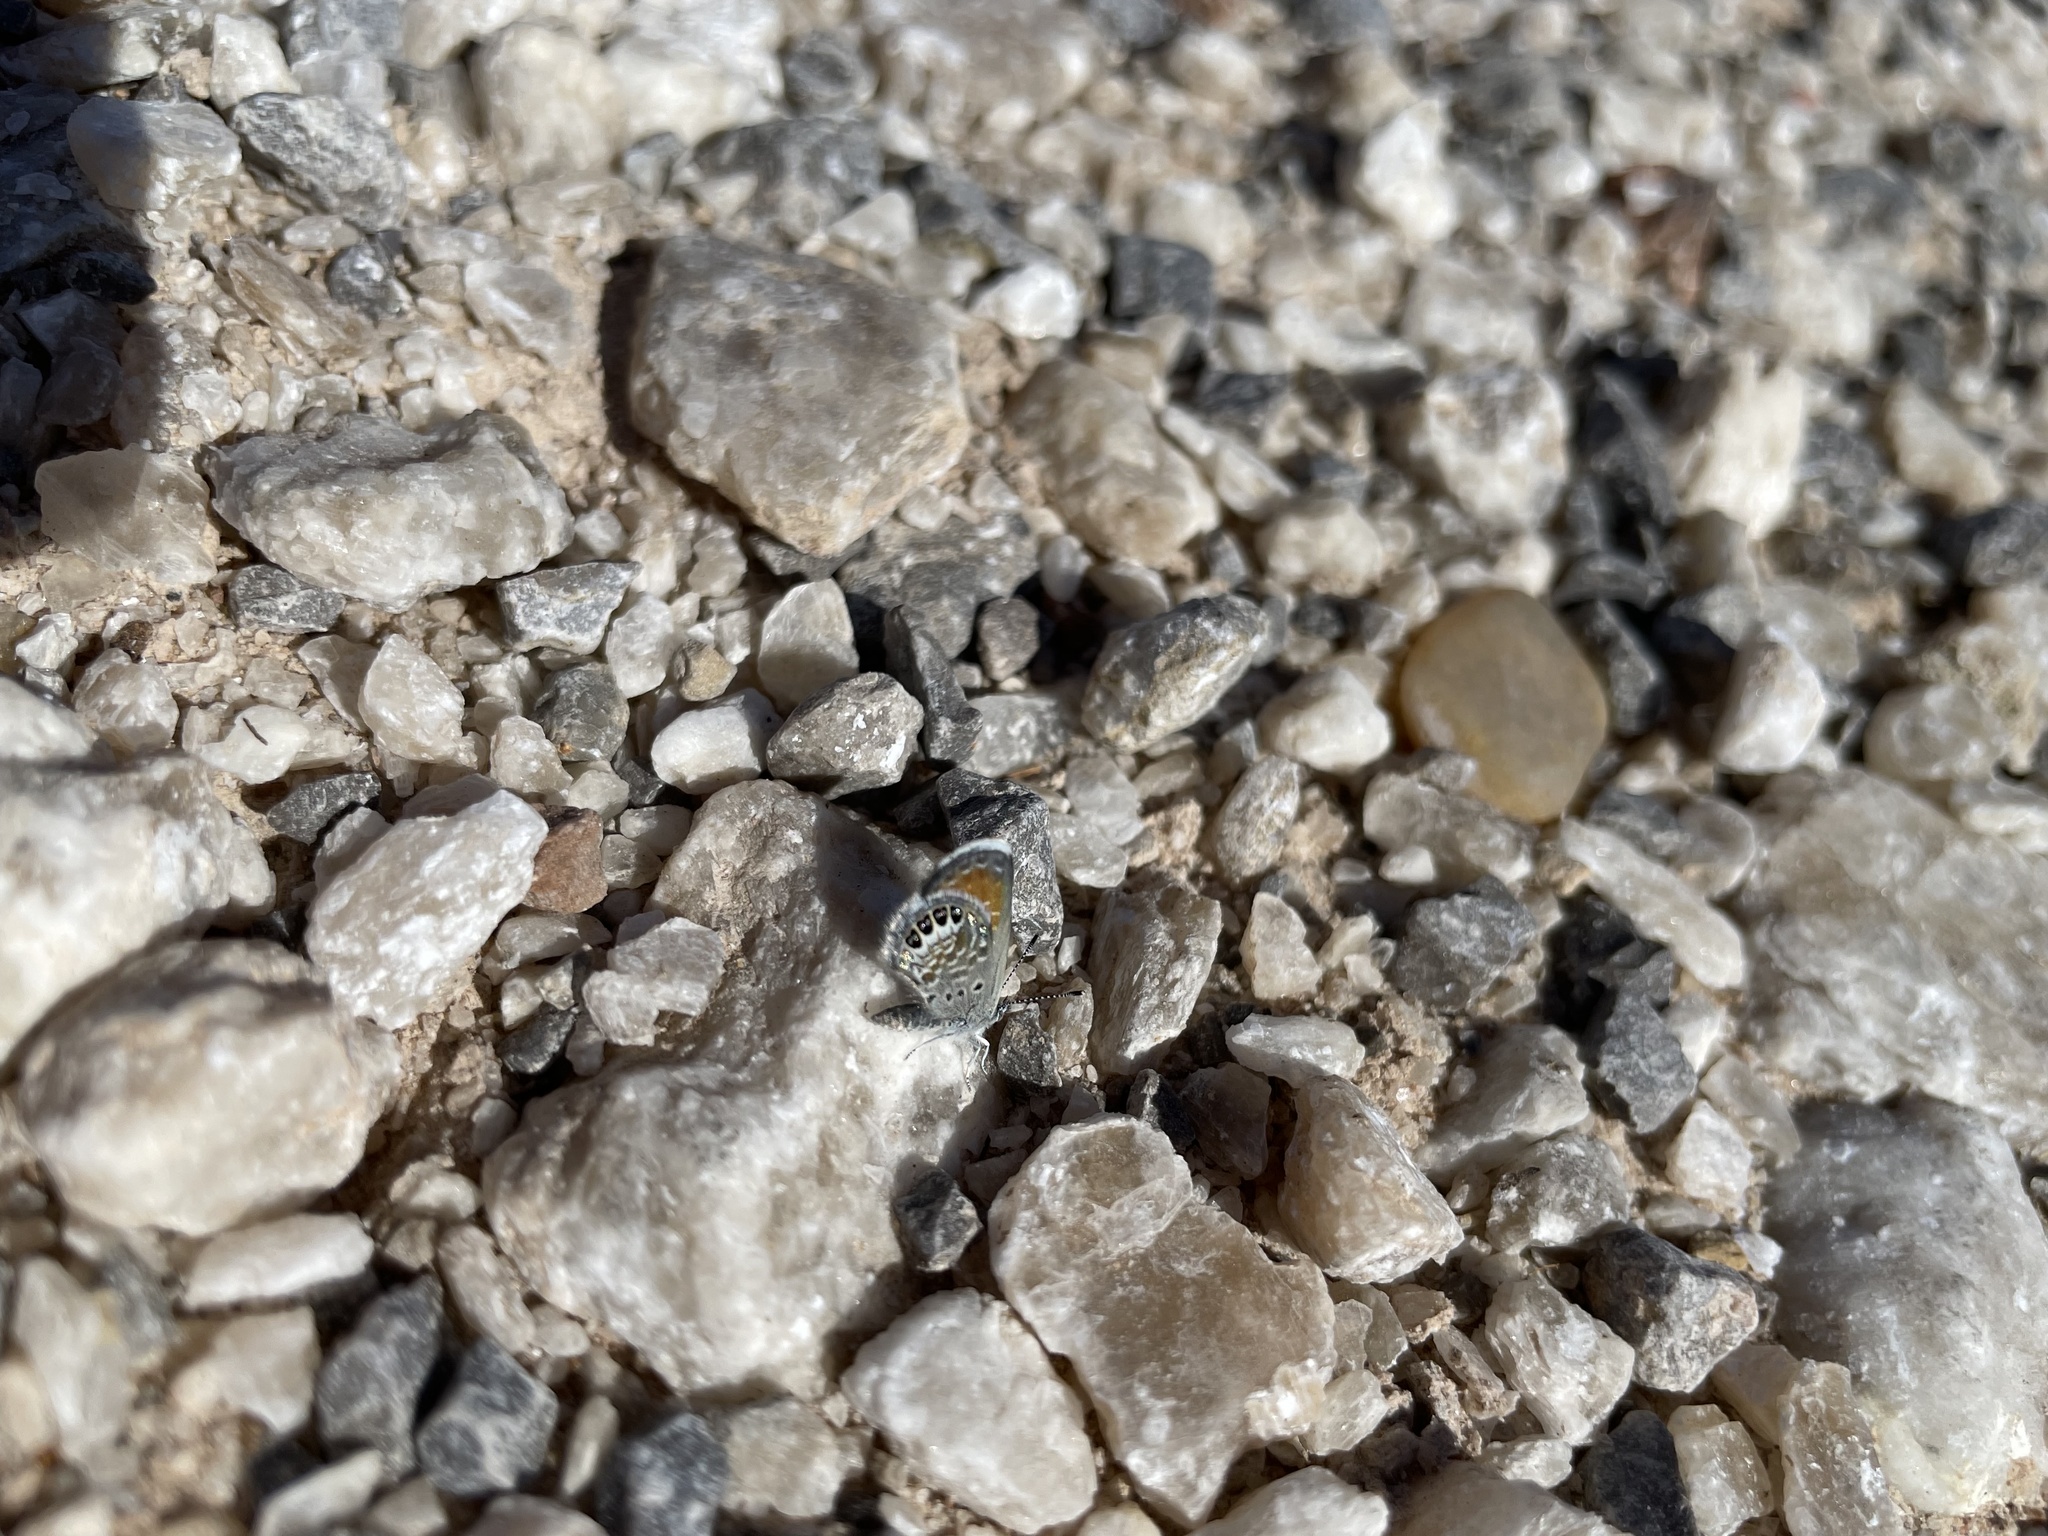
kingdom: Animalia
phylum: Arthropoda
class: Insecta
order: Lepidoptera
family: Lycaenidae
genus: Brephidium
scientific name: Brephidium exilis
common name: Pygmy blue
